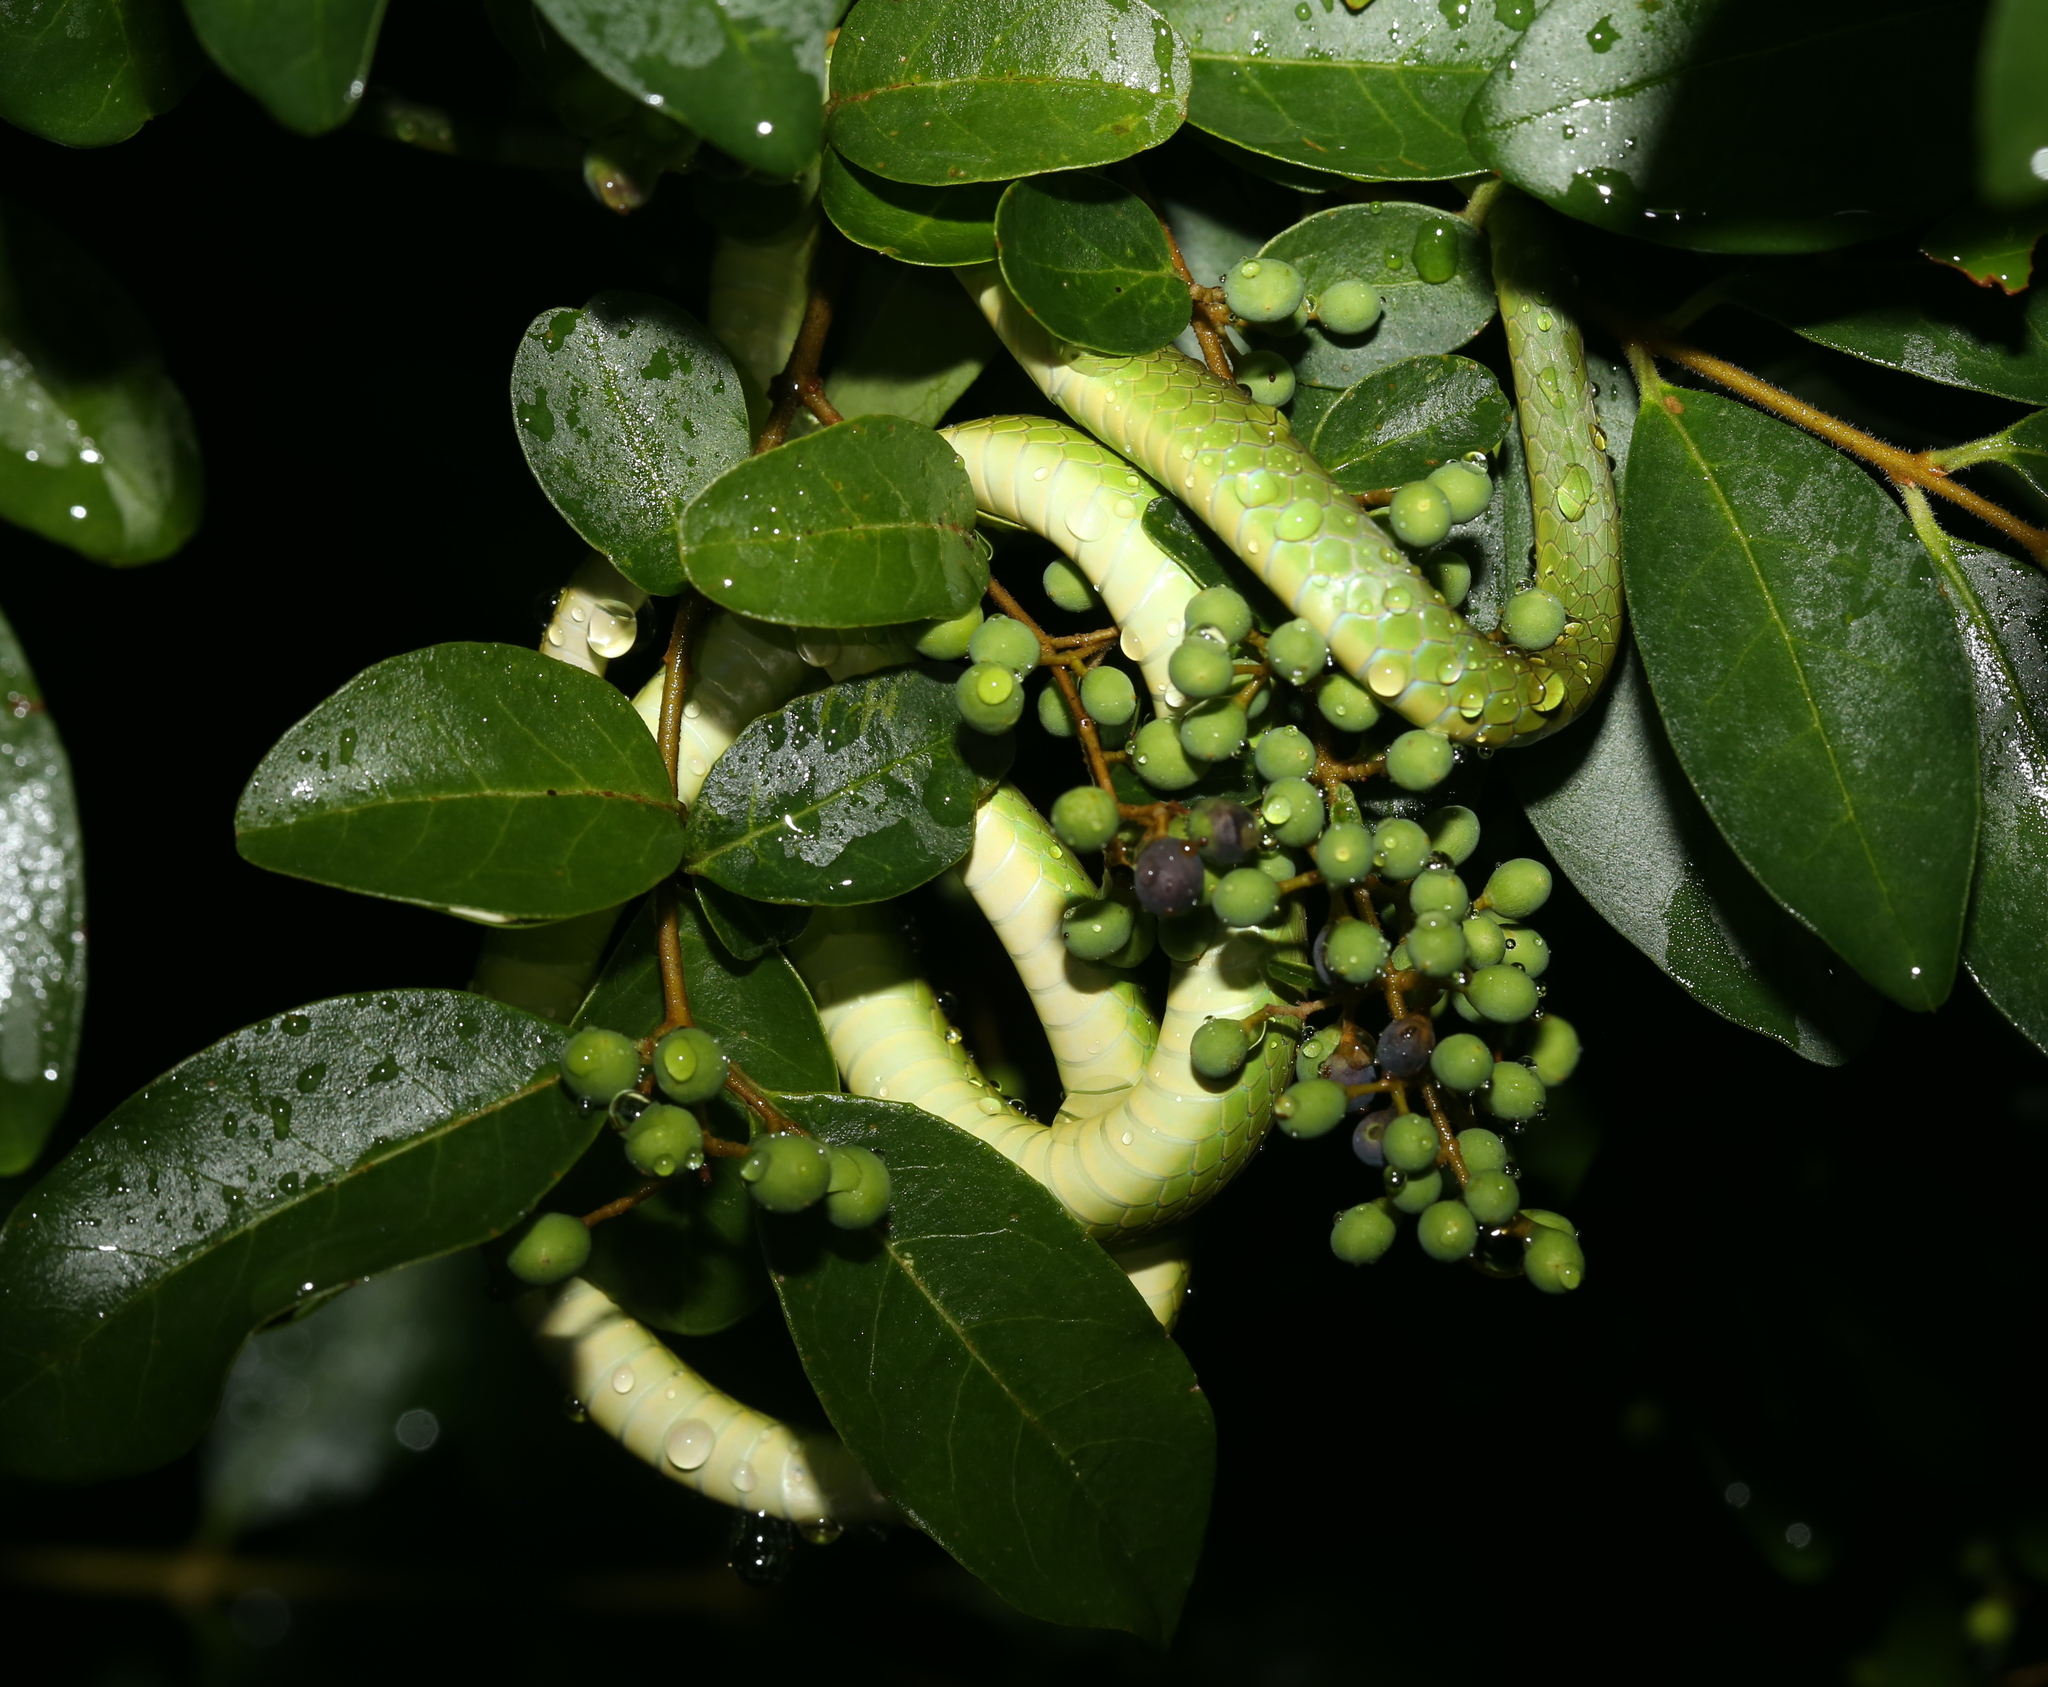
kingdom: Animalia
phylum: Chordata
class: Squamata
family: Colubridae
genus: Opheodrys
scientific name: Opheodrys aestivus
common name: Rough greensnake
